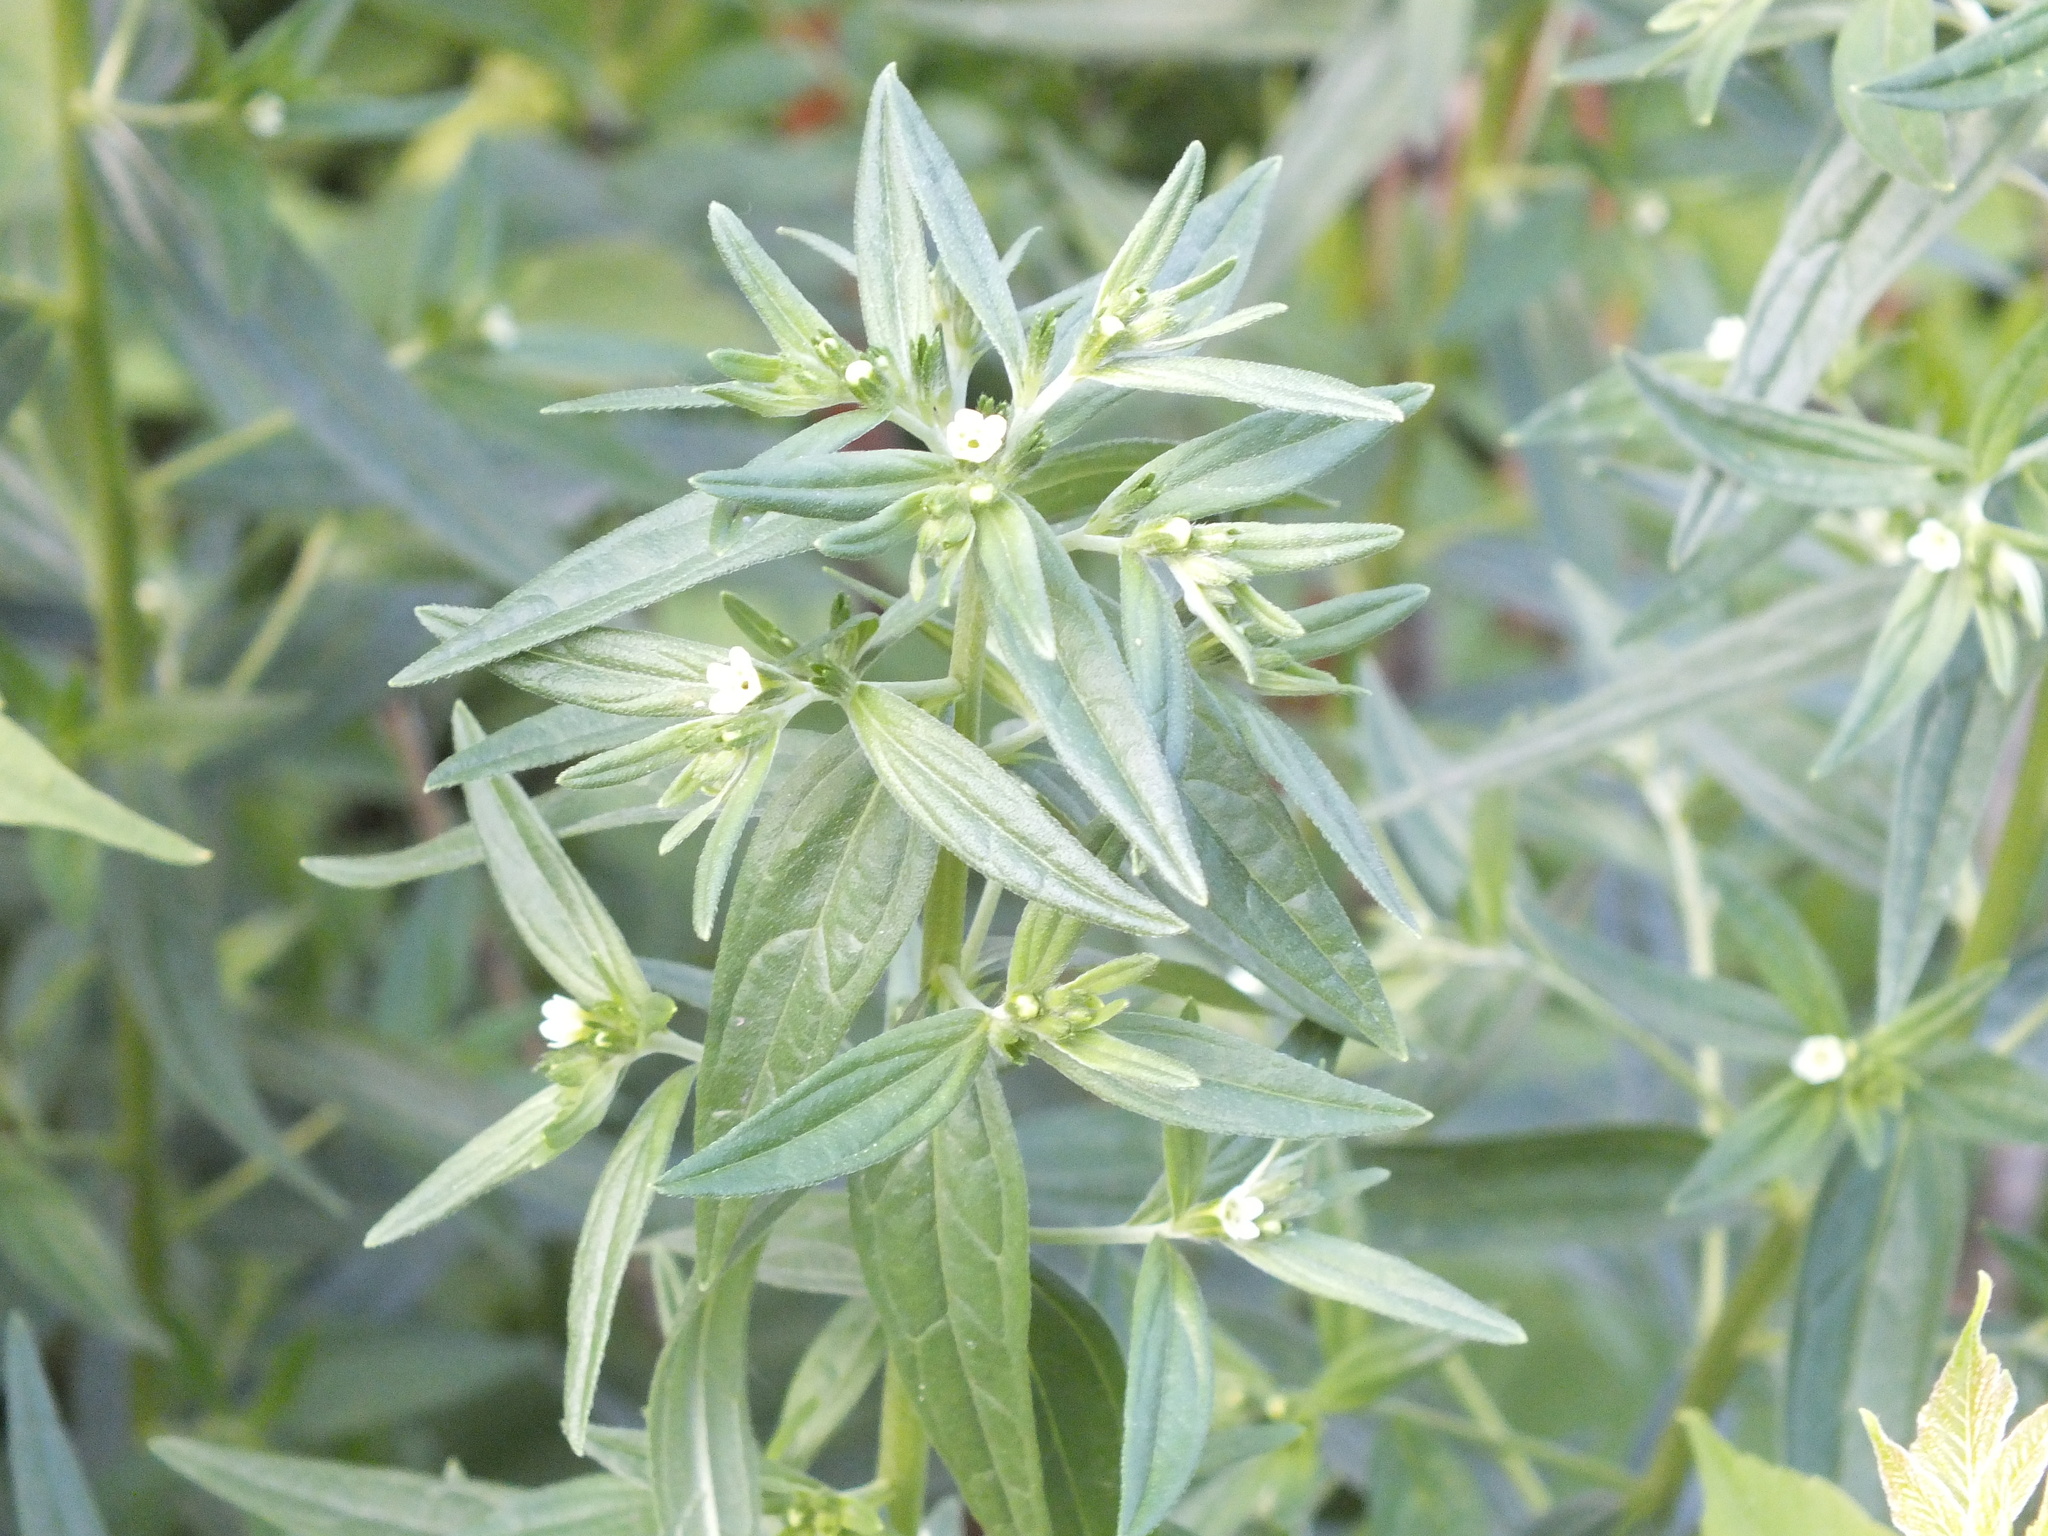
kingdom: Plantae
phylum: Tracheophyta
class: Magnoliopsida
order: Boraginales
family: Boraginaceae
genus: Lithospermum
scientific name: Lithospermum officinale
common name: Common gromwell
